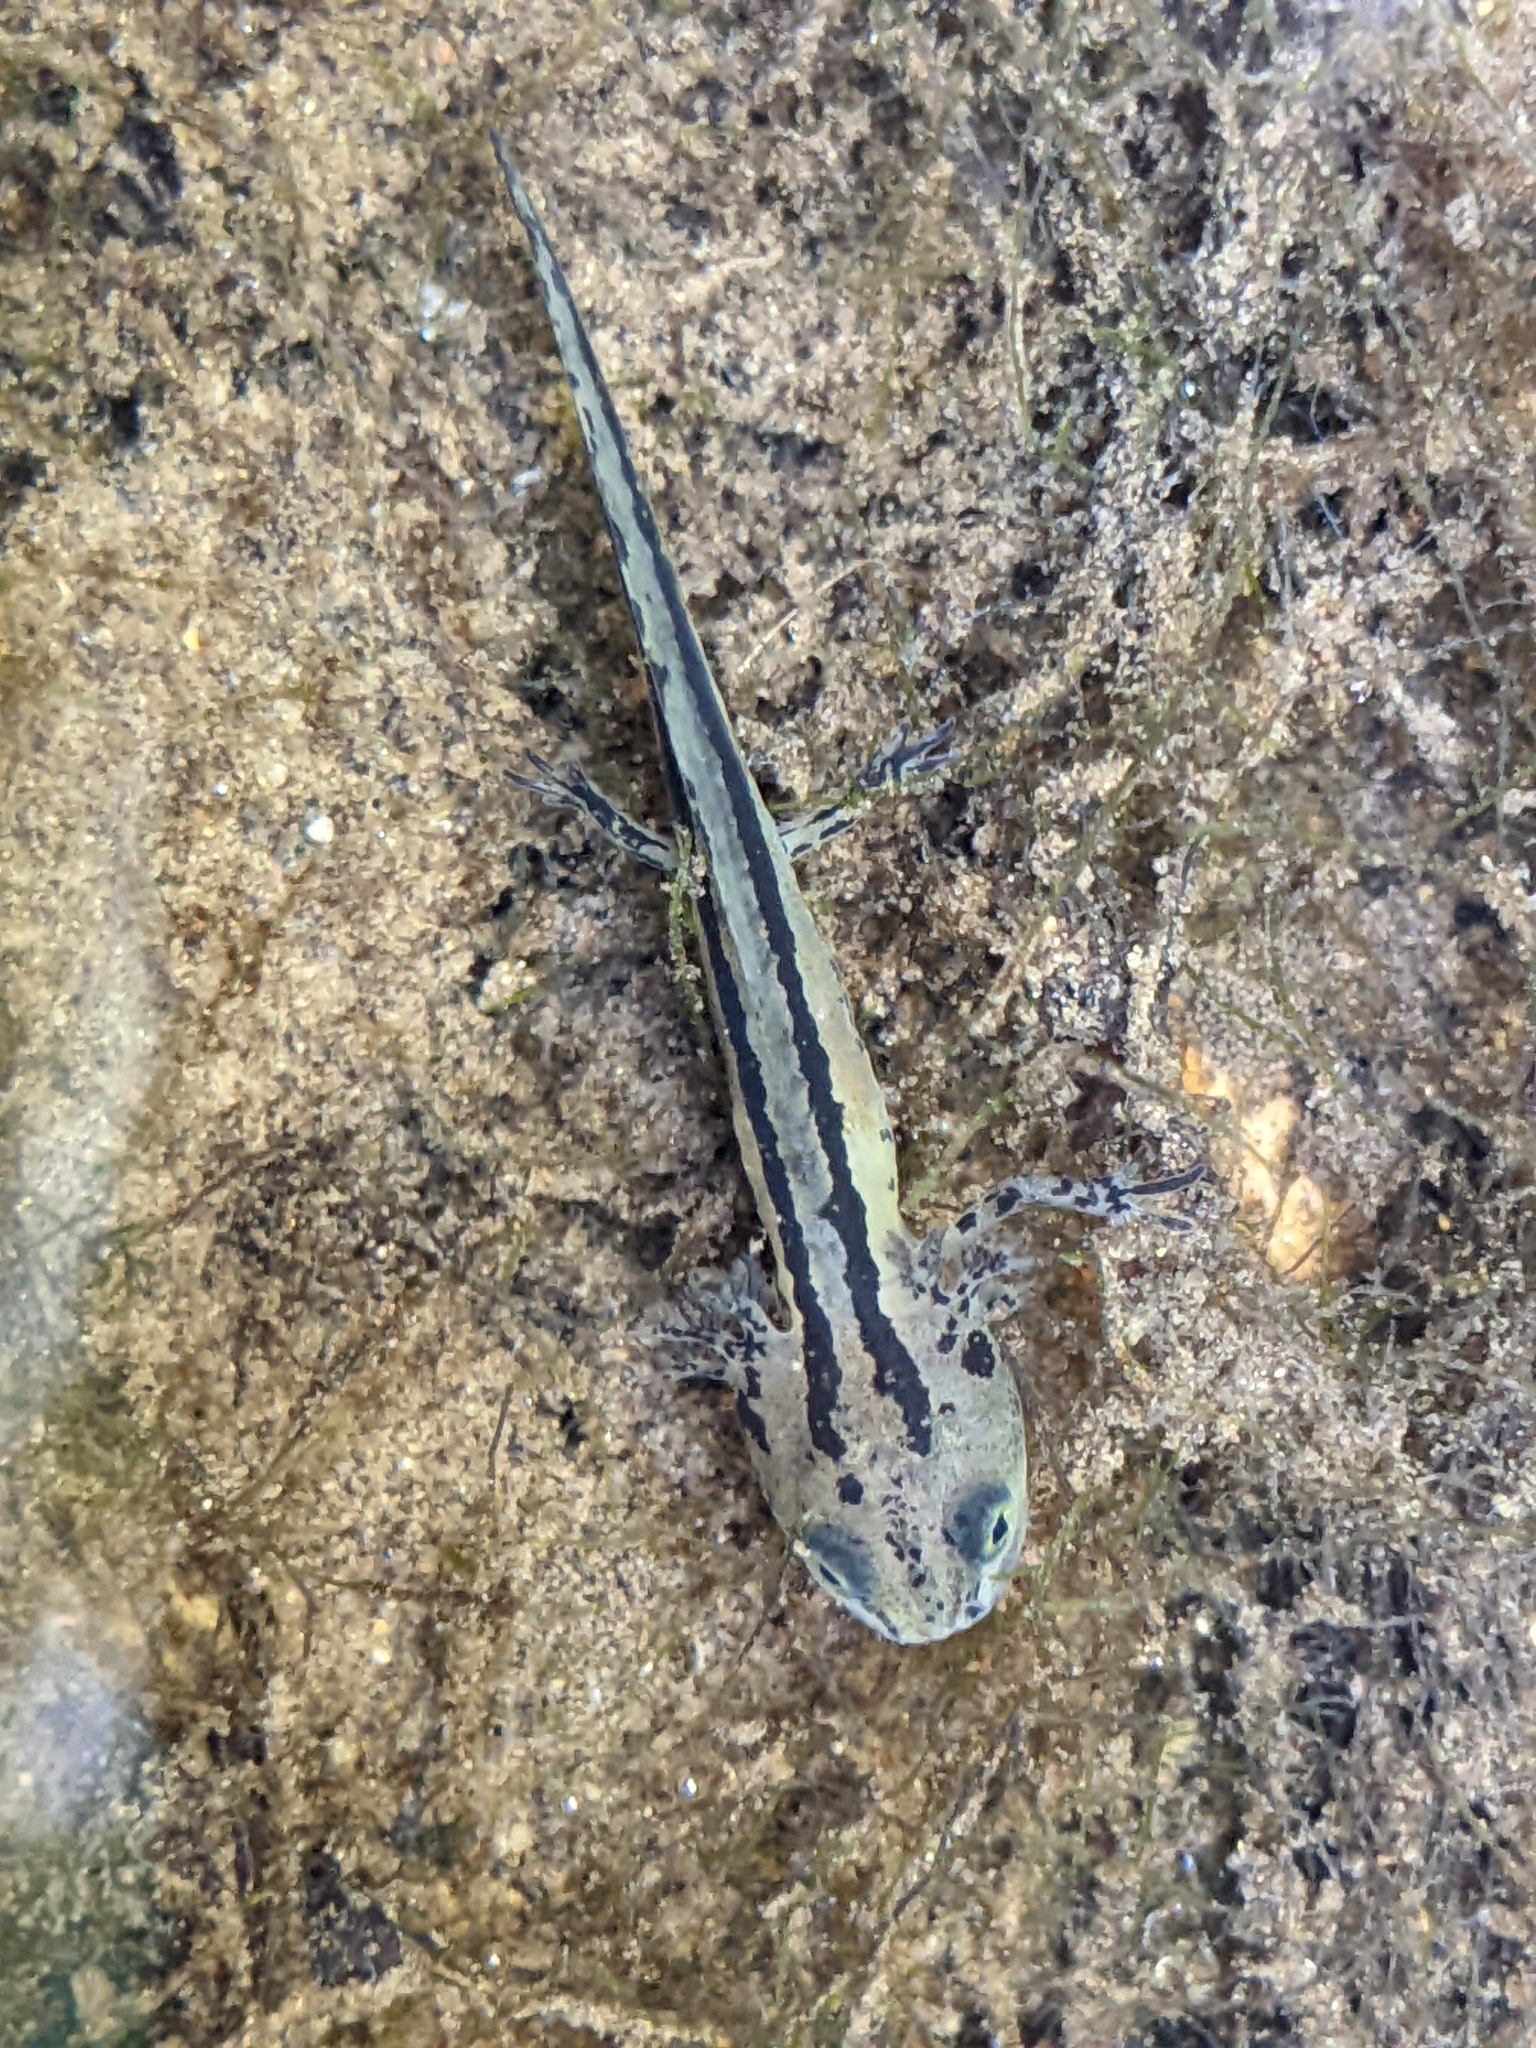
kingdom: Animalia
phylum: Chordata
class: Amphibia
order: Caudata
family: Salamandridae
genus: Taricha
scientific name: Taricha torosa
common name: California newt
